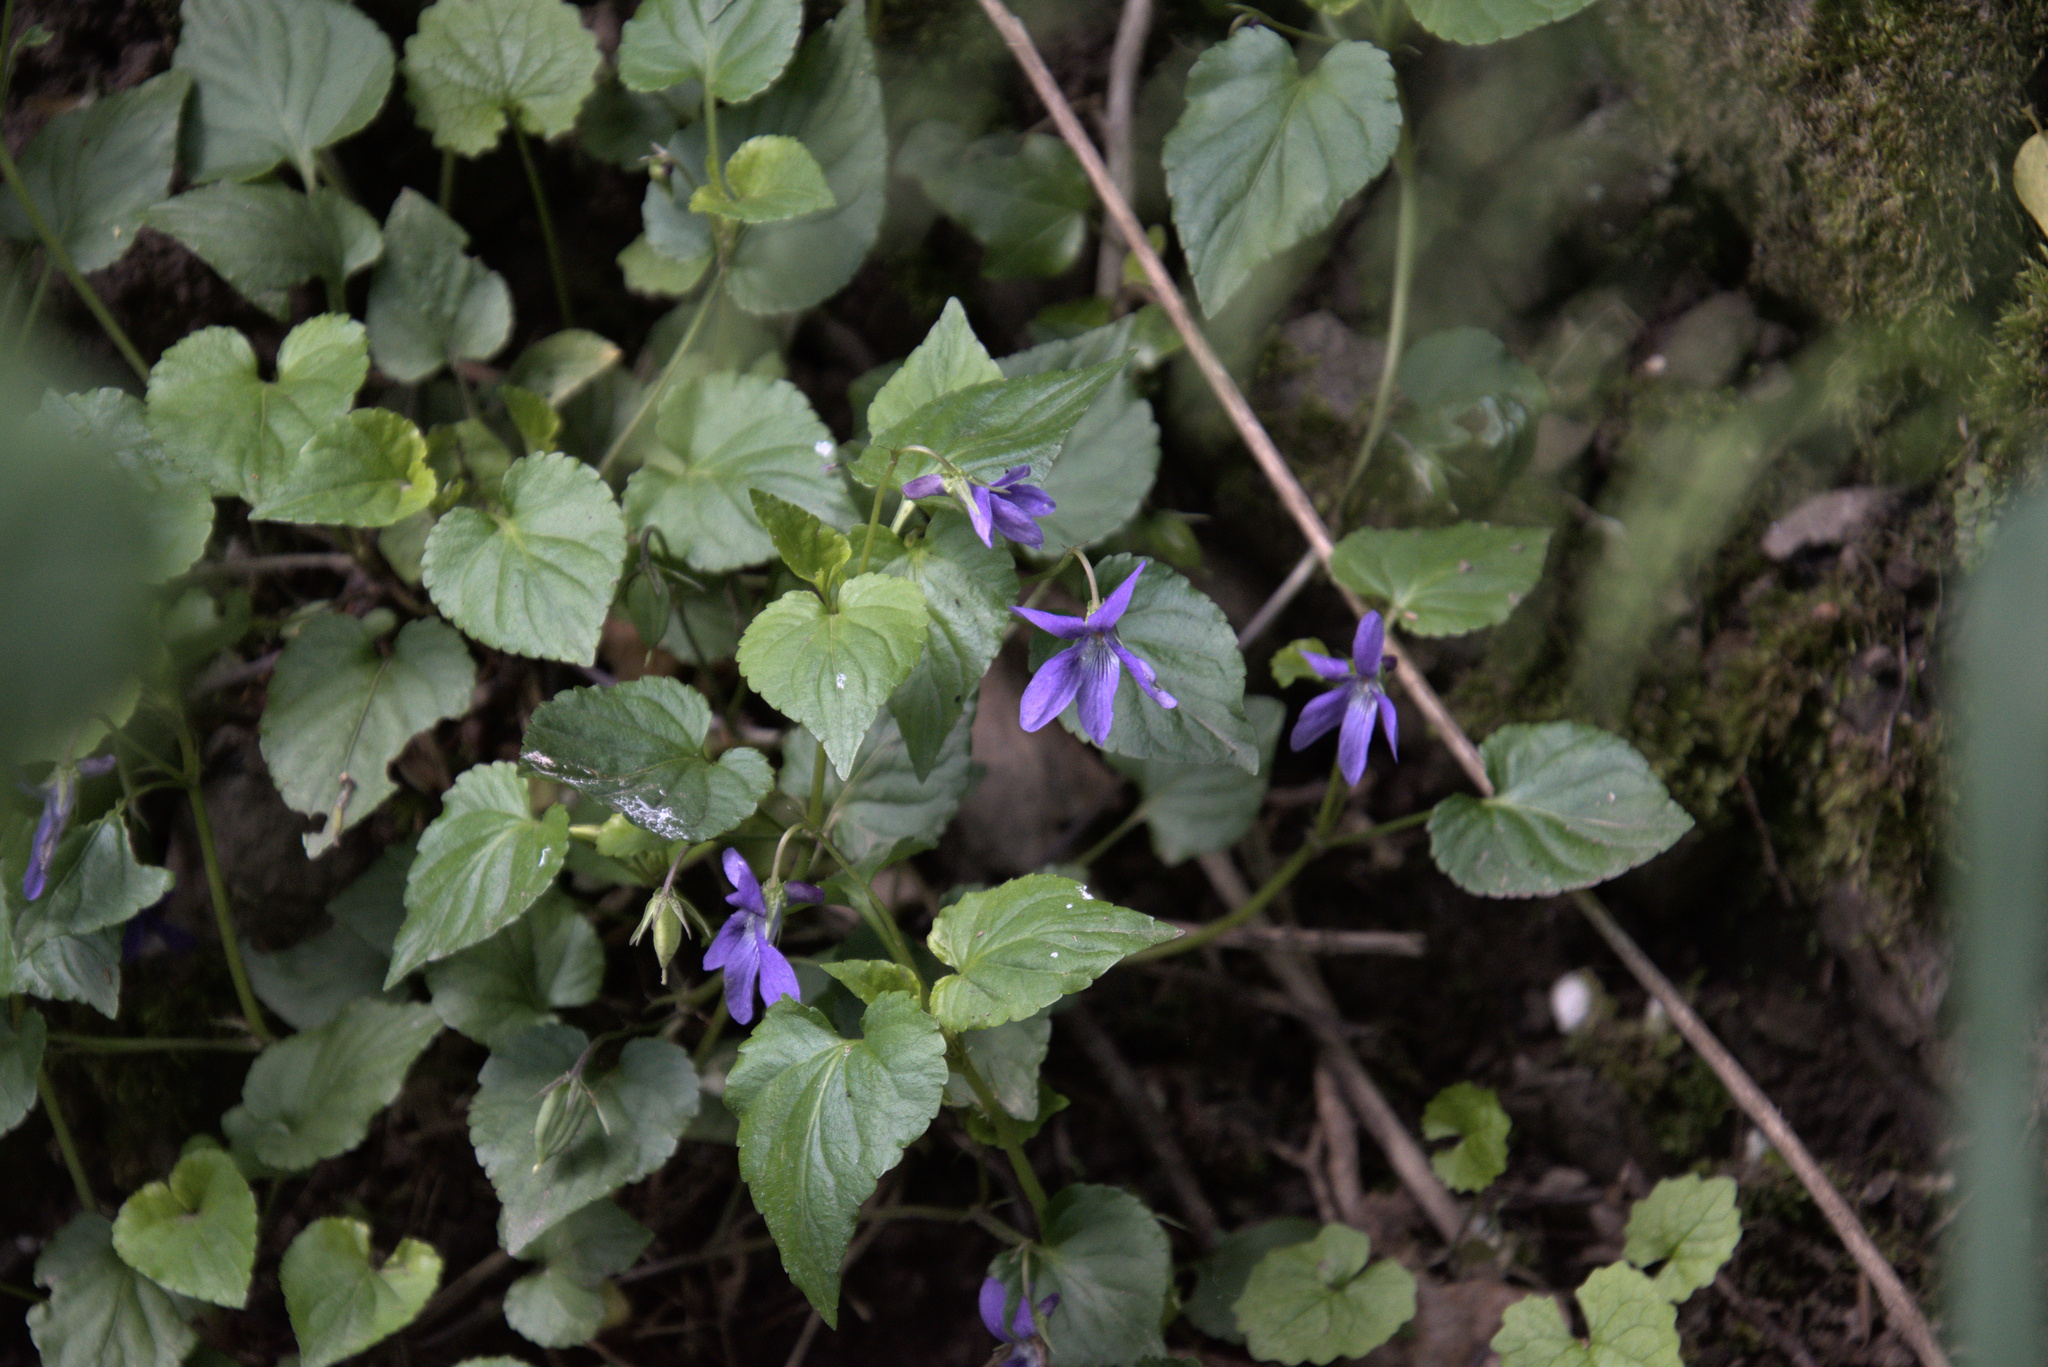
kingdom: Plantae
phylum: Tracheophyta
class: Magnoliopsida
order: Malpighiales
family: Violaceae
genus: Viola
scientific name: Viola reichenbachiana
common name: Early dog-violet
